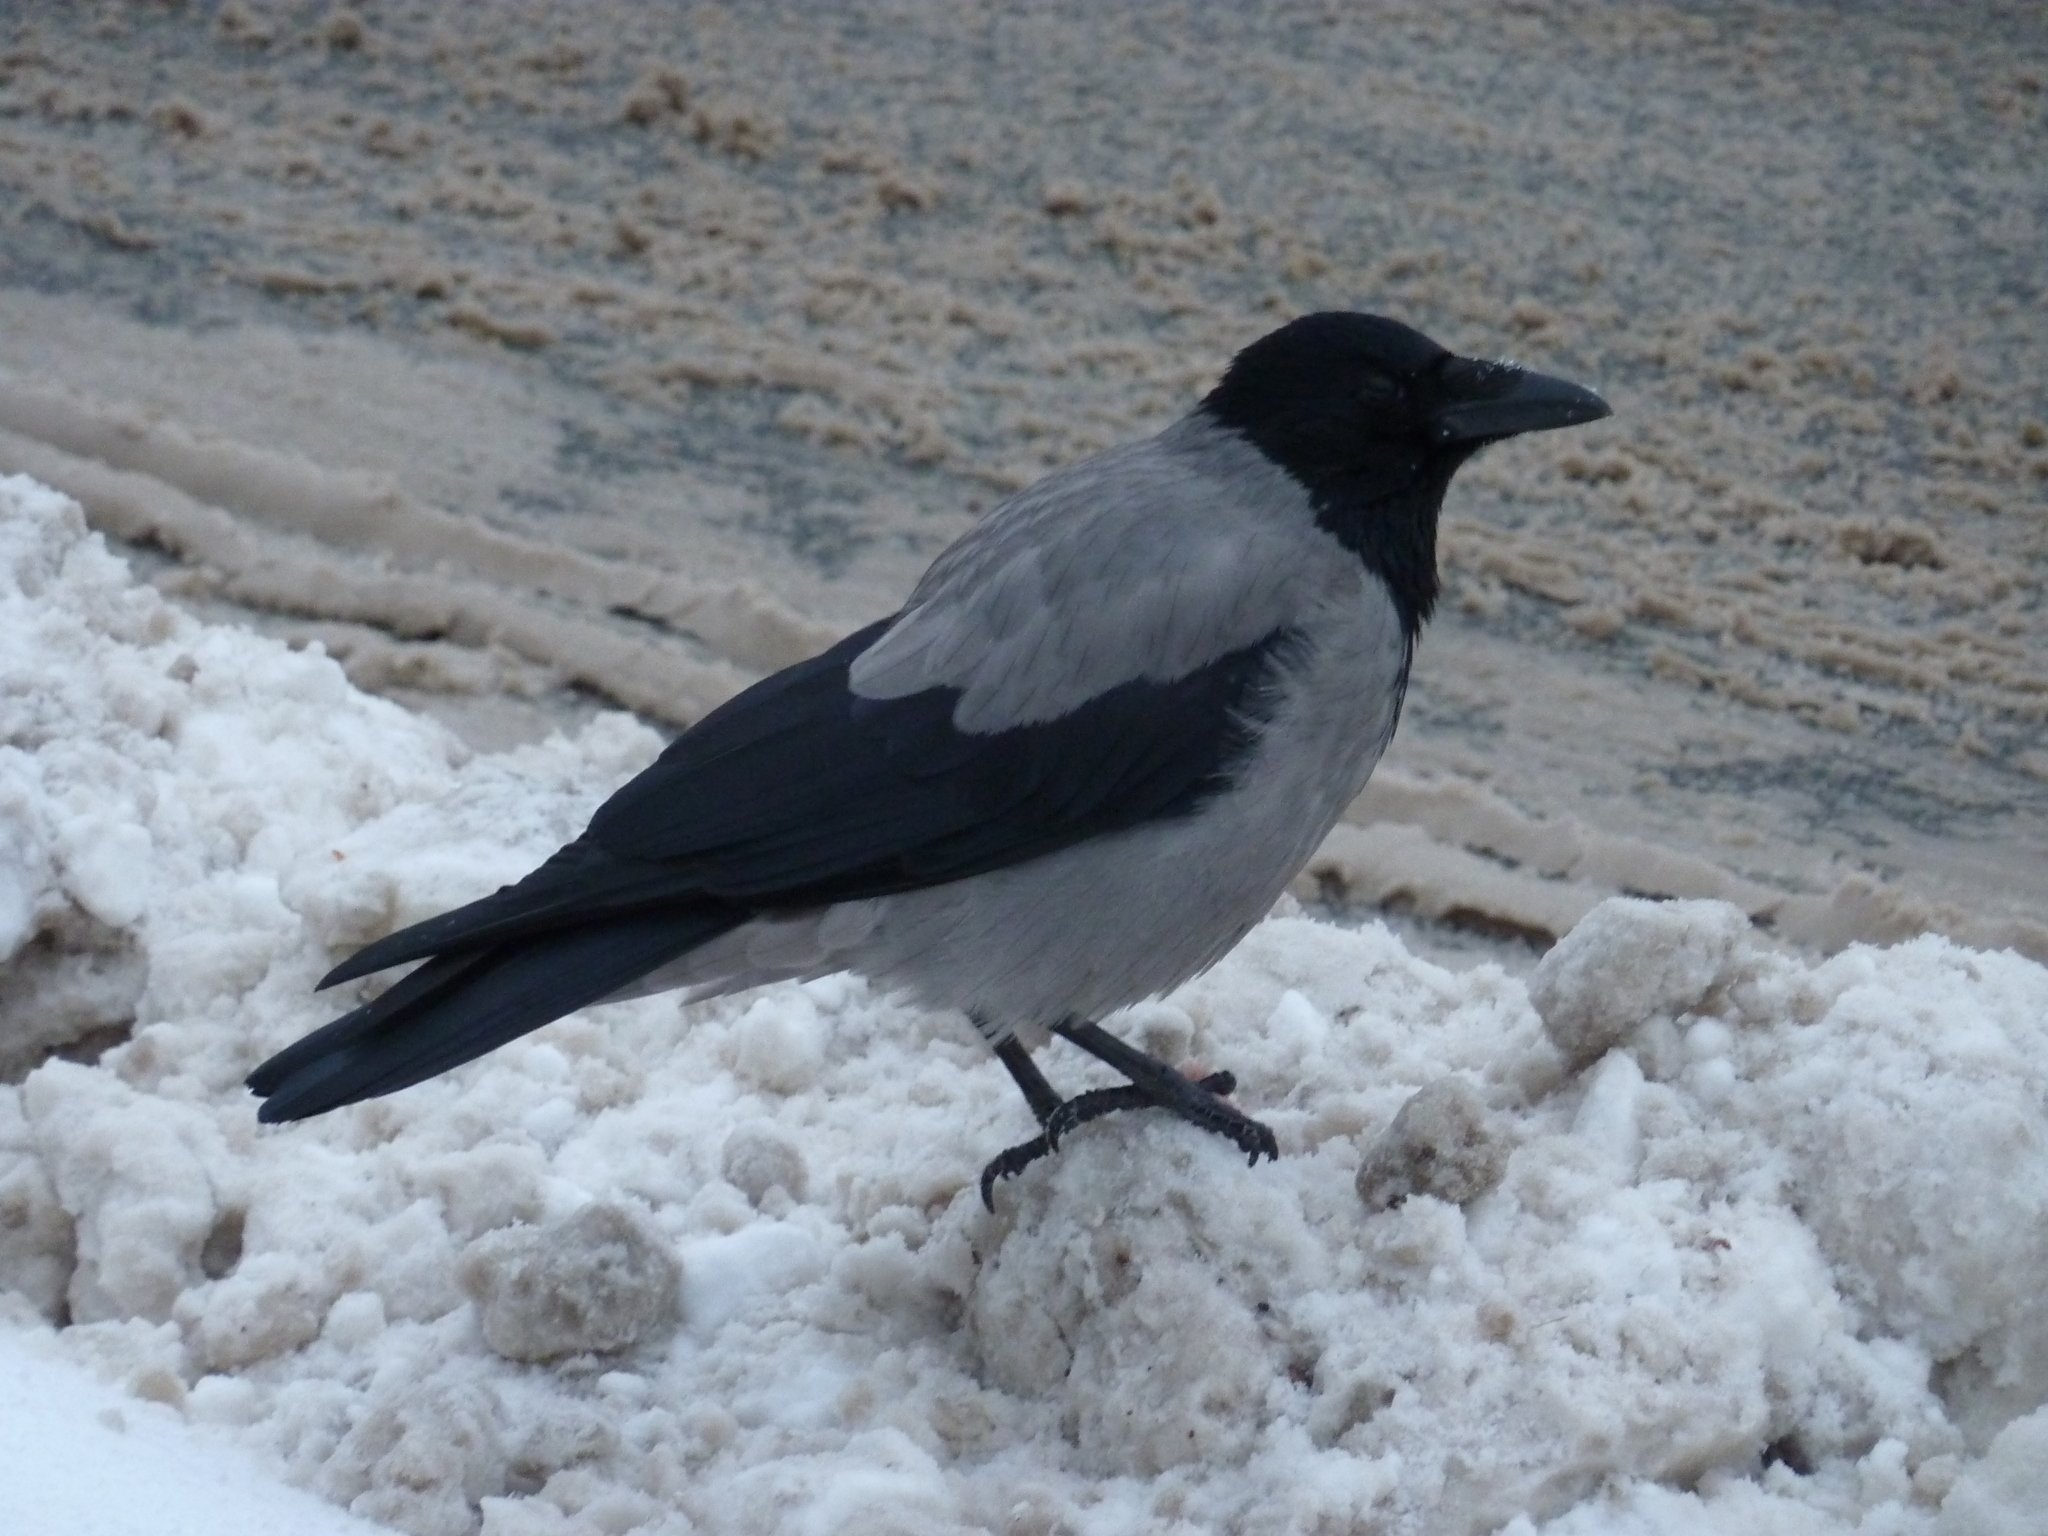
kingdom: Animalia
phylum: Chordata
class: Aves
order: Passeriformes
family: Corvidae
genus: Corvus
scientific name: Corvus cornix
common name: Hooded crow
